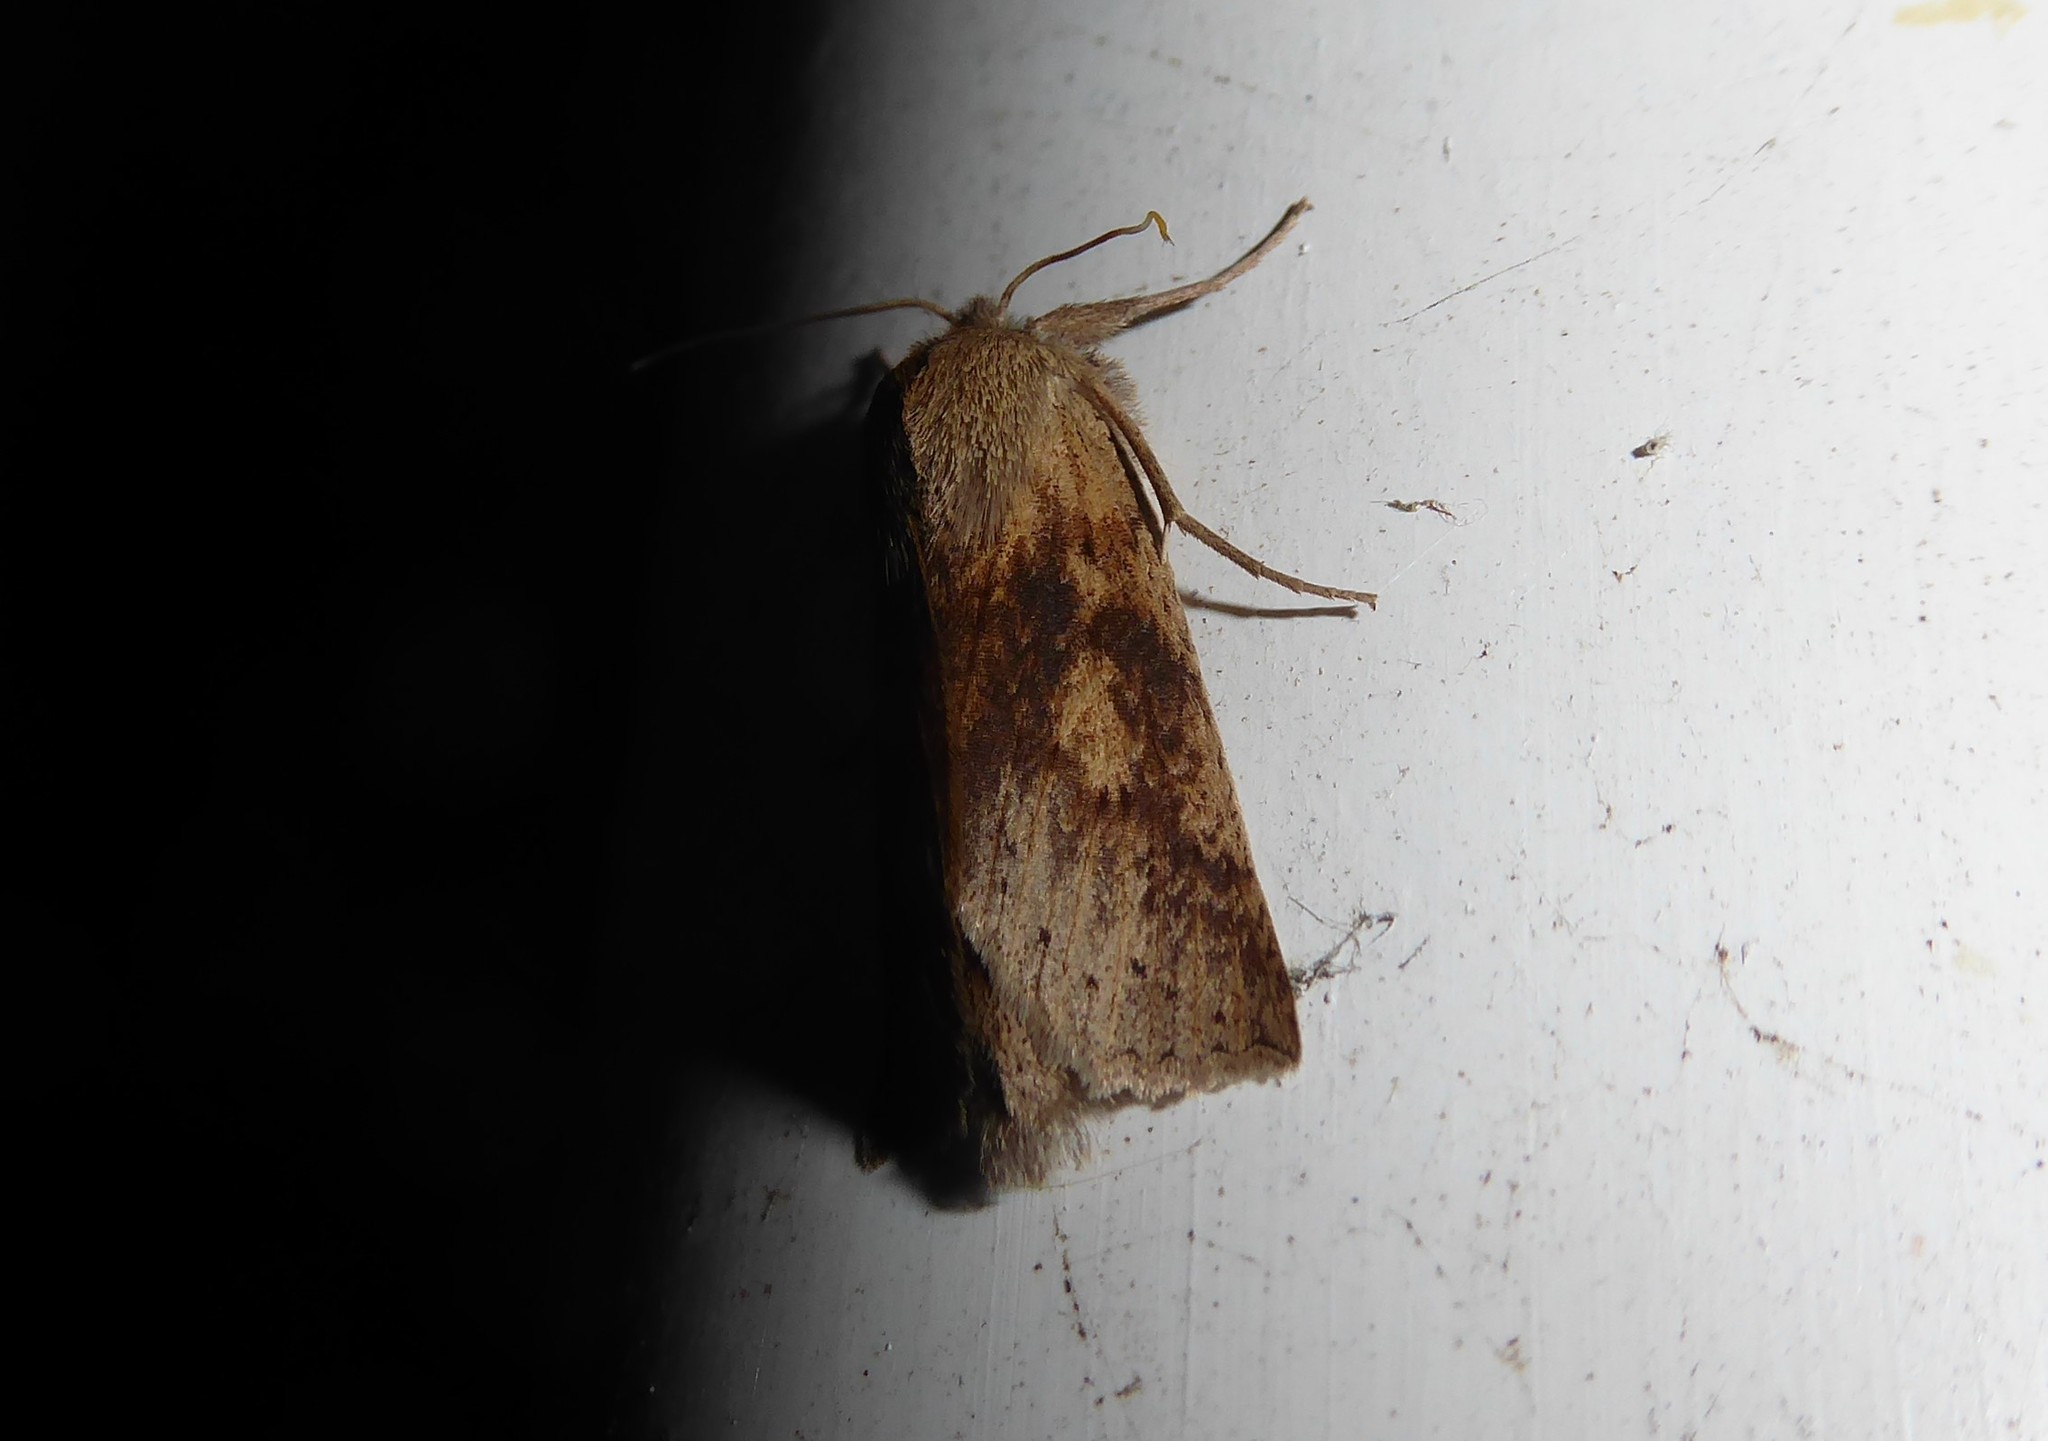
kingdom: Animalia
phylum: Arthropoda
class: Insecta
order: Lepidoptera
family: Geometridae
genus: Declana
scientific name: Declana leptomera
